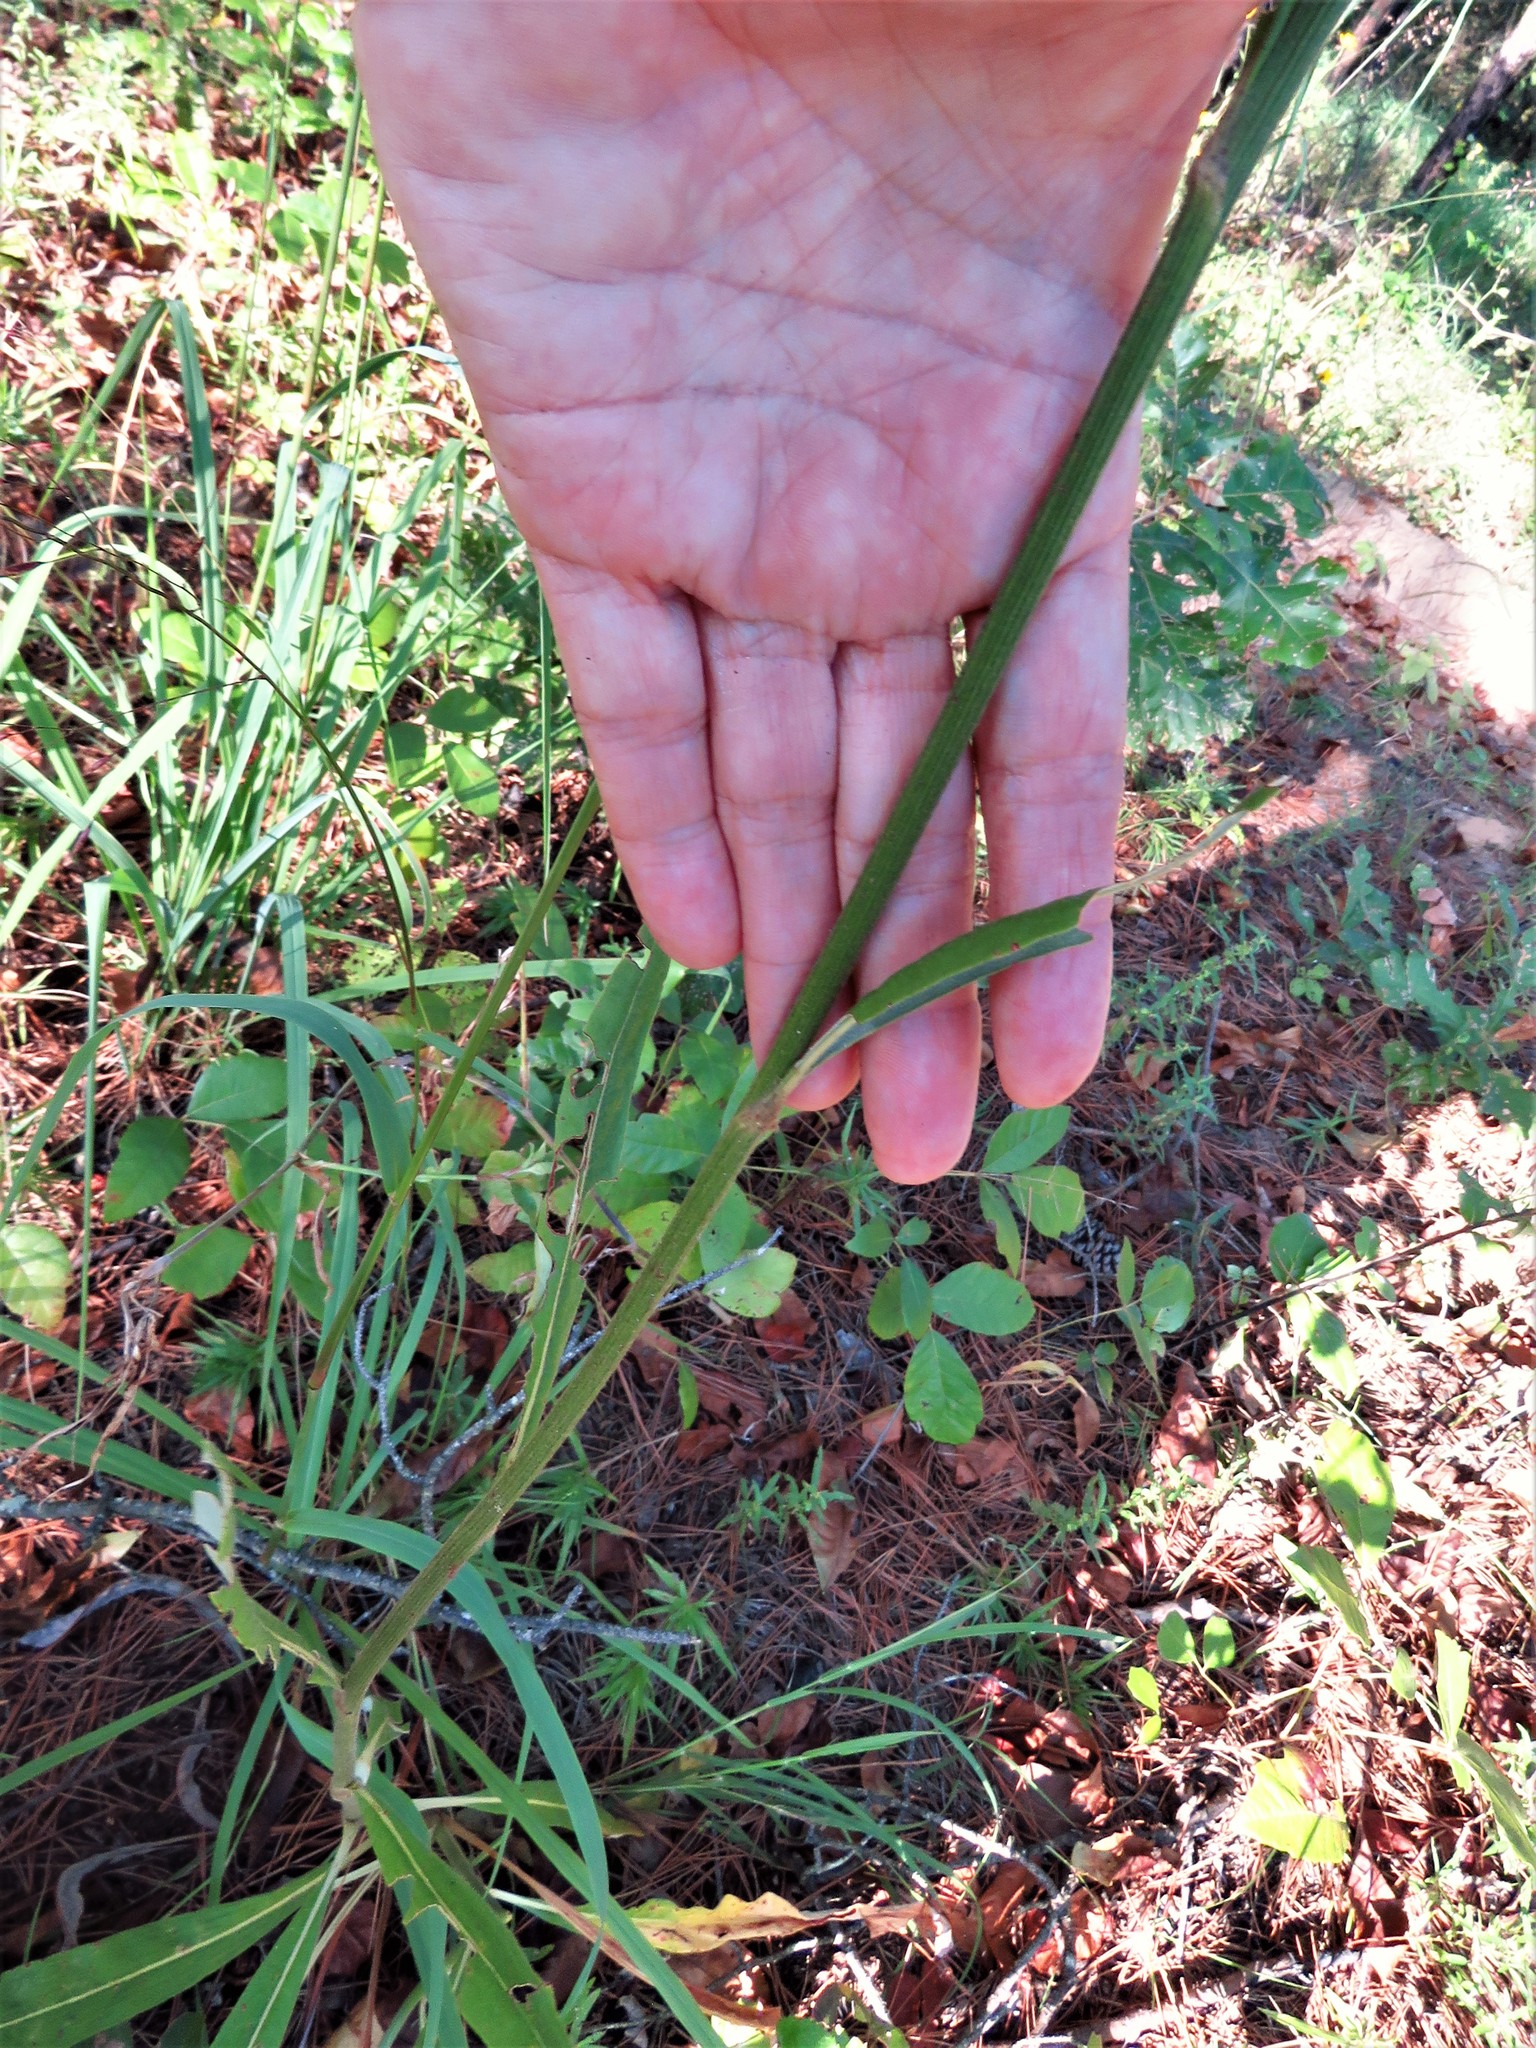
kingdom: Plantae
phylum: Tracheophyta
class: Magnoliopsida
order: Caryophyllales
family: Polygonaceae
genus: Eriogonum
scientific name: Eriogonum longifolium
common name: Longleaf wild buckwheat
